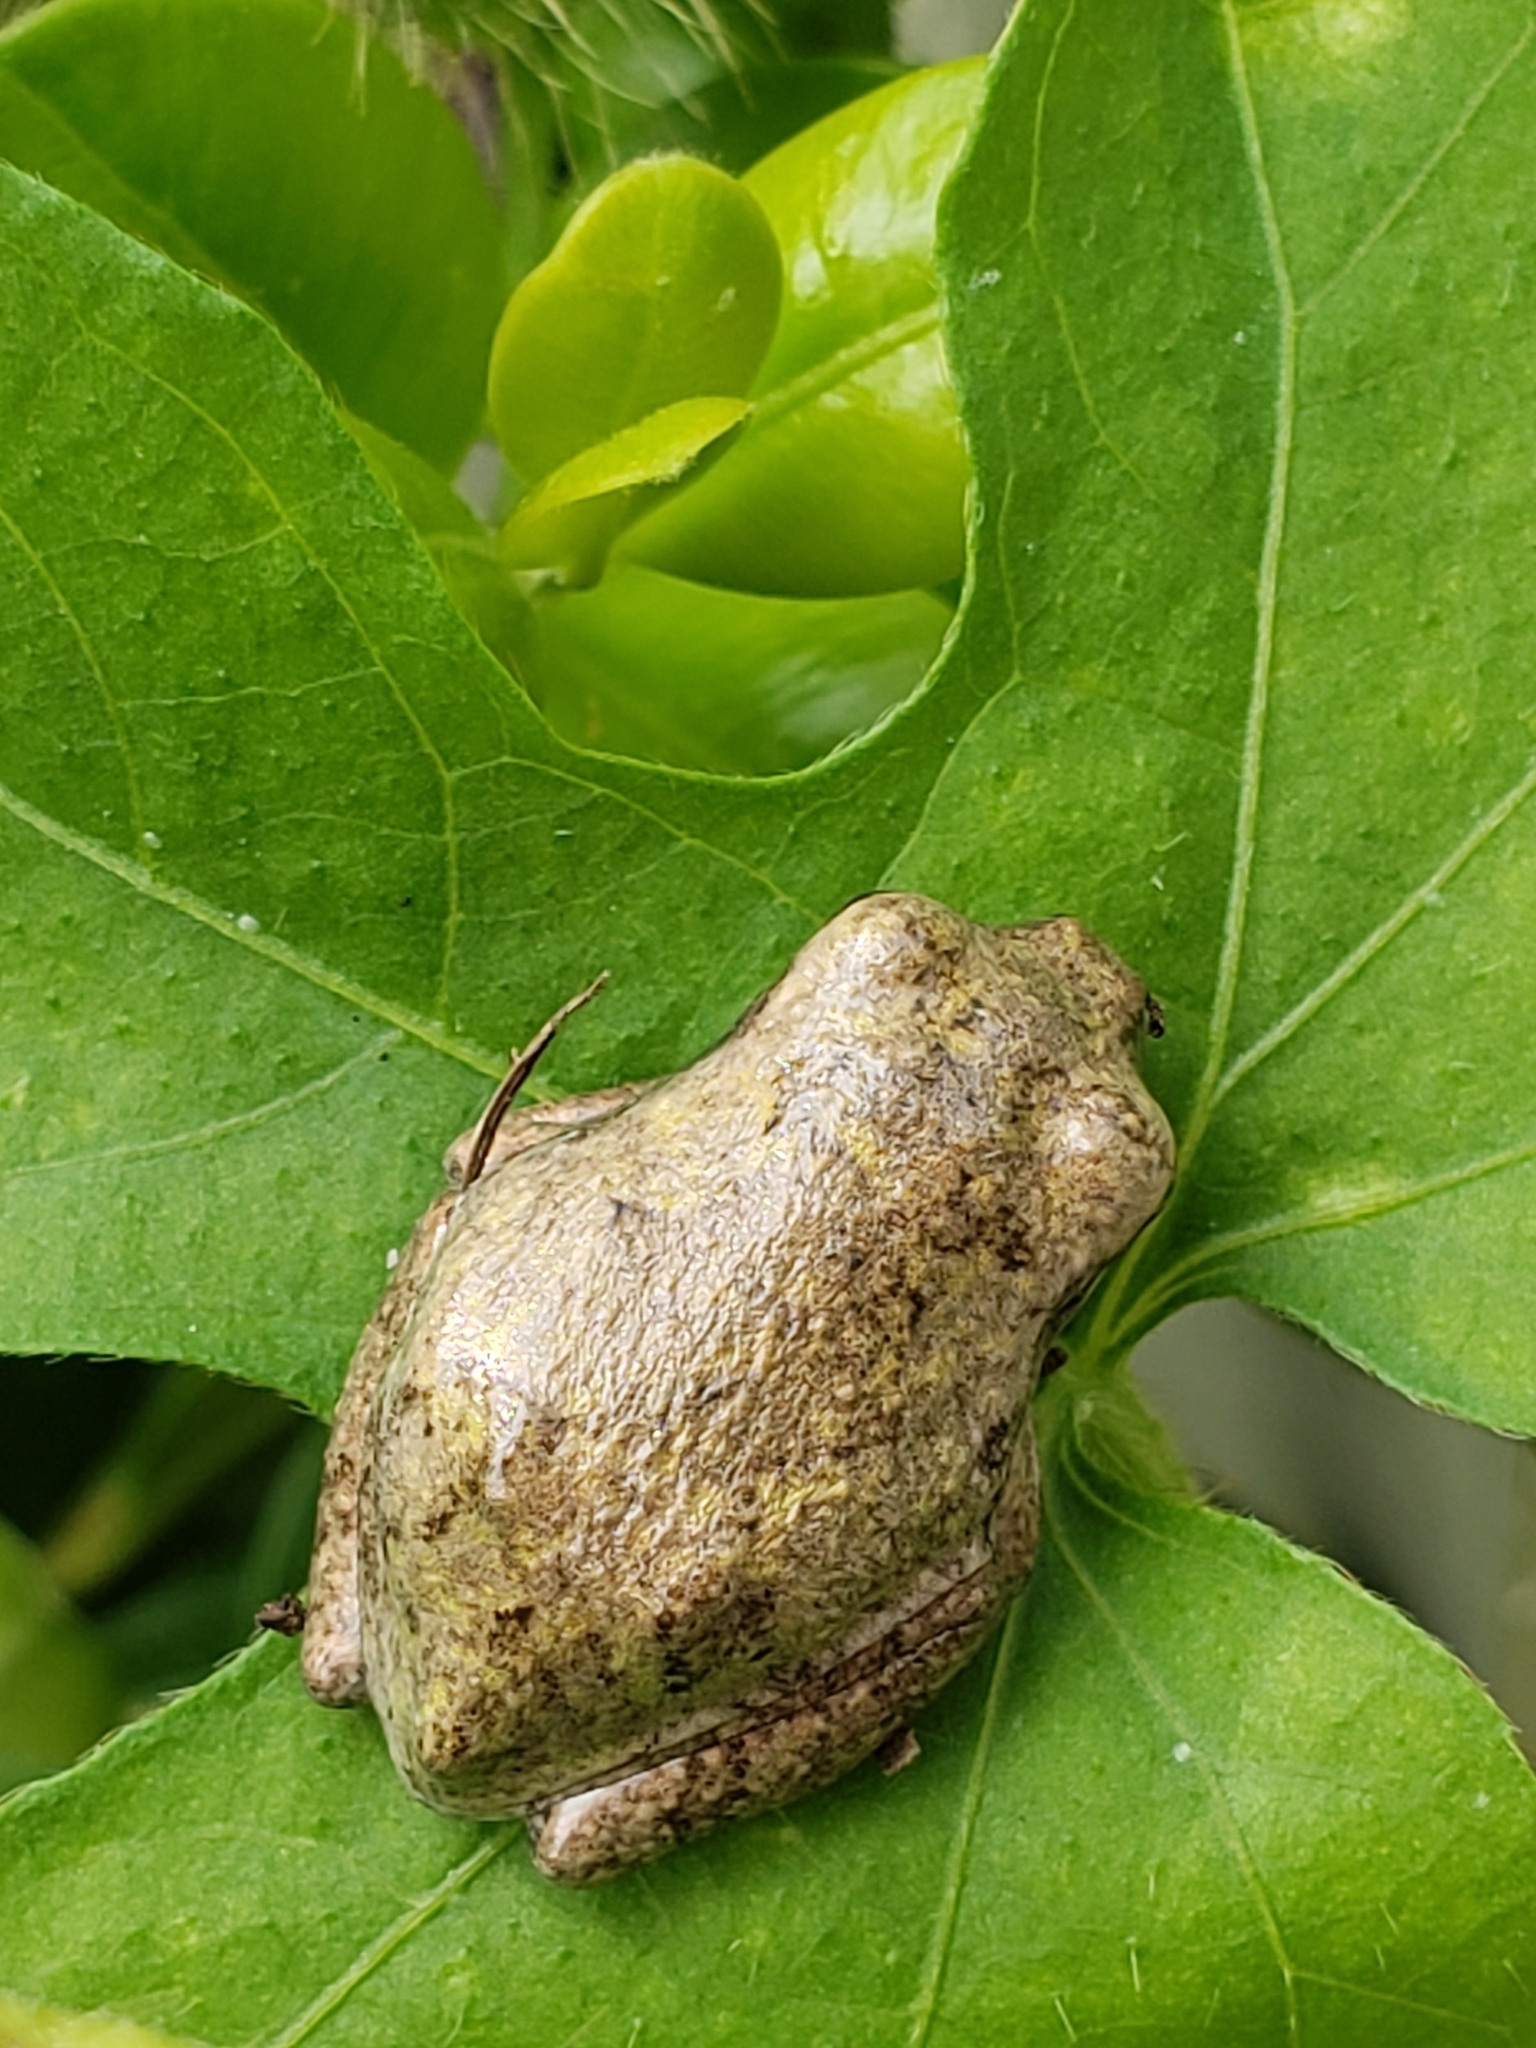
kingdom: Animalia
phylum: Chordata
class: Amphibia
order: Anura
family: Hylidae
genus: Hyla
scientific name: Hyla
